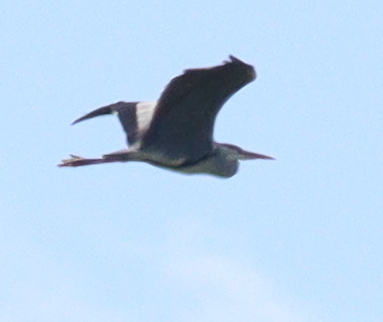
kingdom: Animalia
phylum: Chordata
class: Aves
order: Pelecaniformes
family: Ardeidae
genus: Ardea
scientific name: Ardea cinerea
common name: Grey heron
